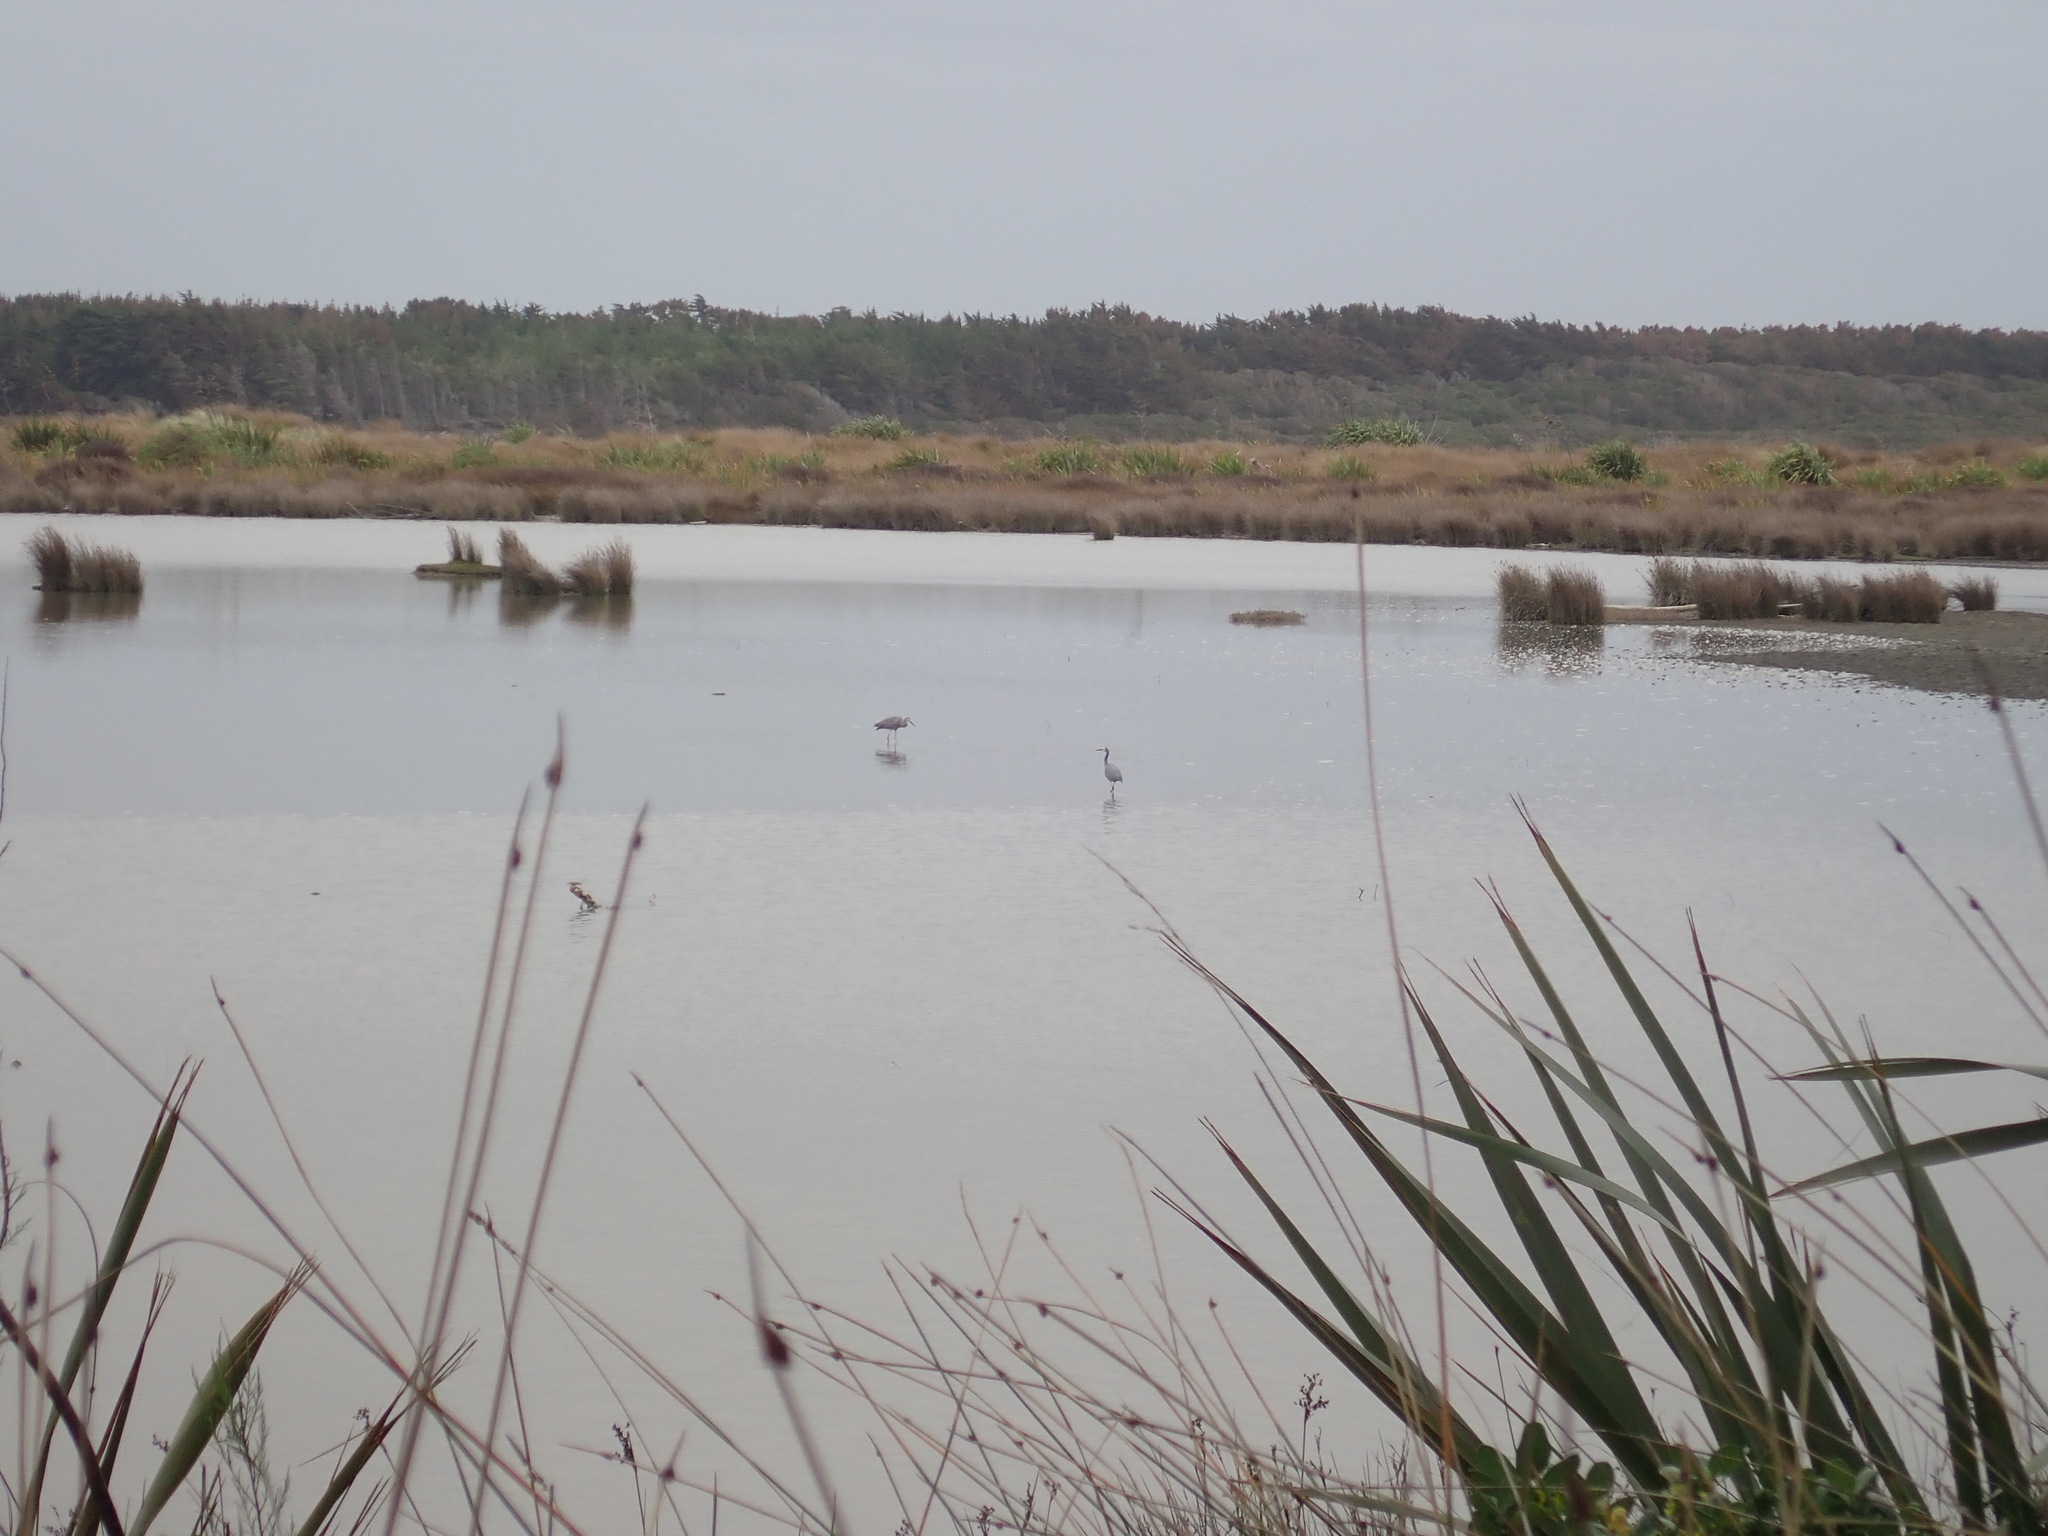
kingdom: Animalia
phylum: Chordata
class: Aves
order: Pelecaniformes
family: Ardeidae
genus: Egretta
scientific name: Egretta novaehollandiae
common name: White-faced heron
